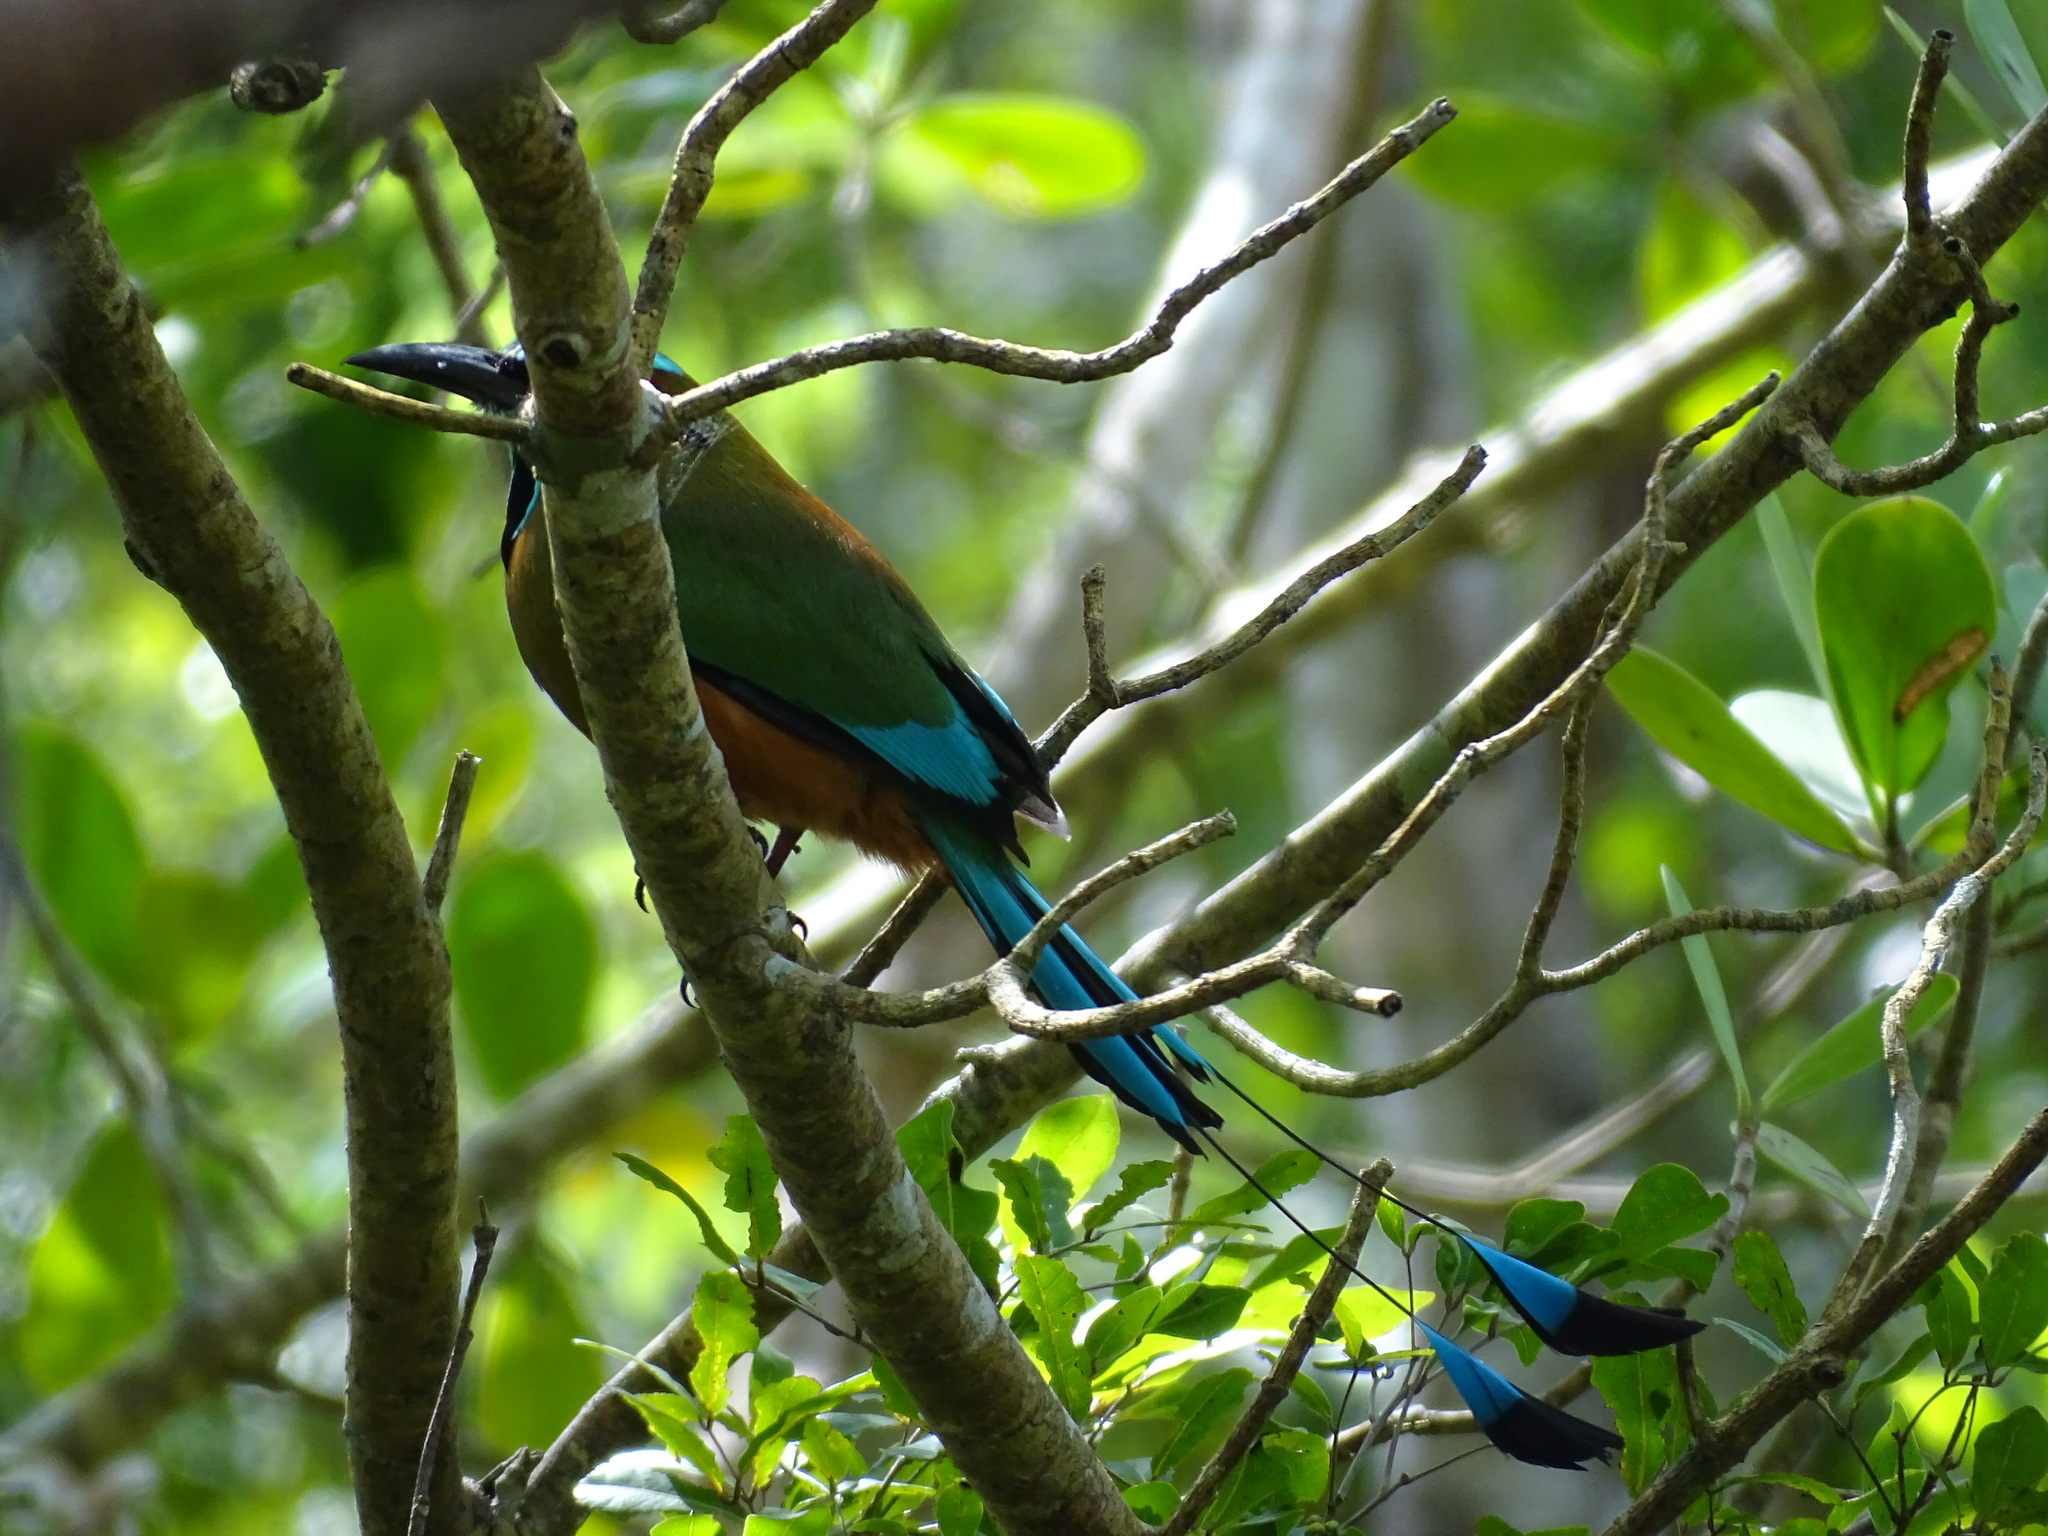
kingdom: Animalia
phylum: Chordata
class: Aves
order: Coraciiformes
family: Momotidae
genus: Eumomota
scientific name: Eumomota superciliosa
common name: Turquoise-browed motmot
